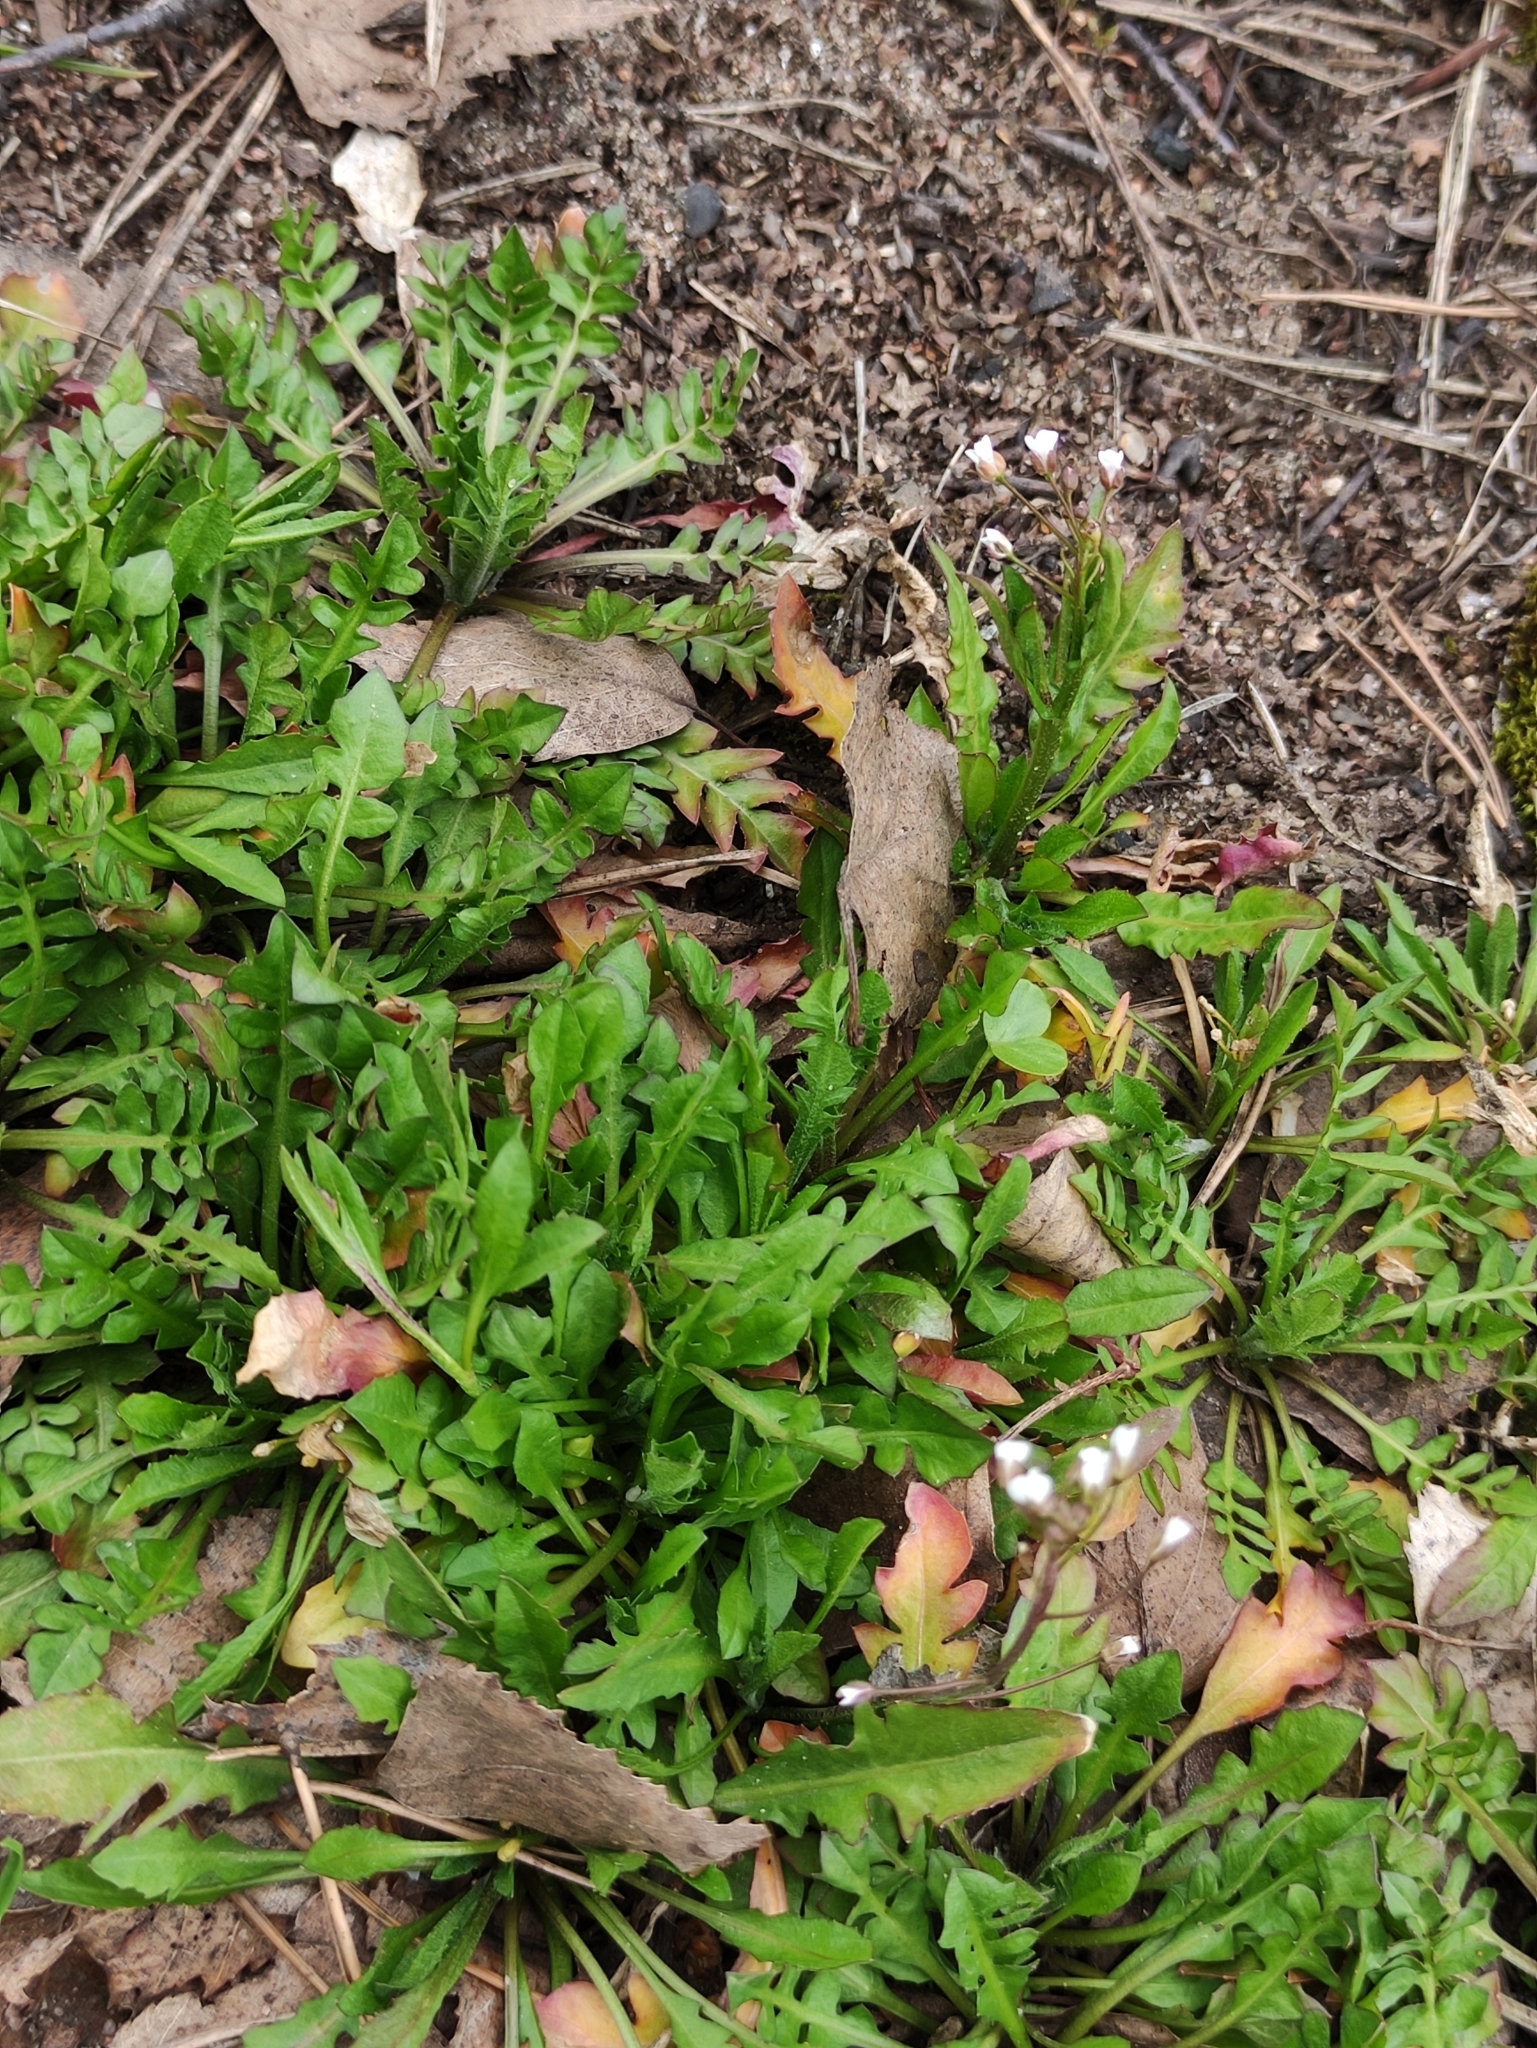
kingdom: Plantae
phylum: Tracheophyta
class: Magnoliopsida
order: Brassicales
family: Brassicaceae
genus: Capsella
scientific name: Capsella bursa-pastoris
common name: Shepherd's purse
